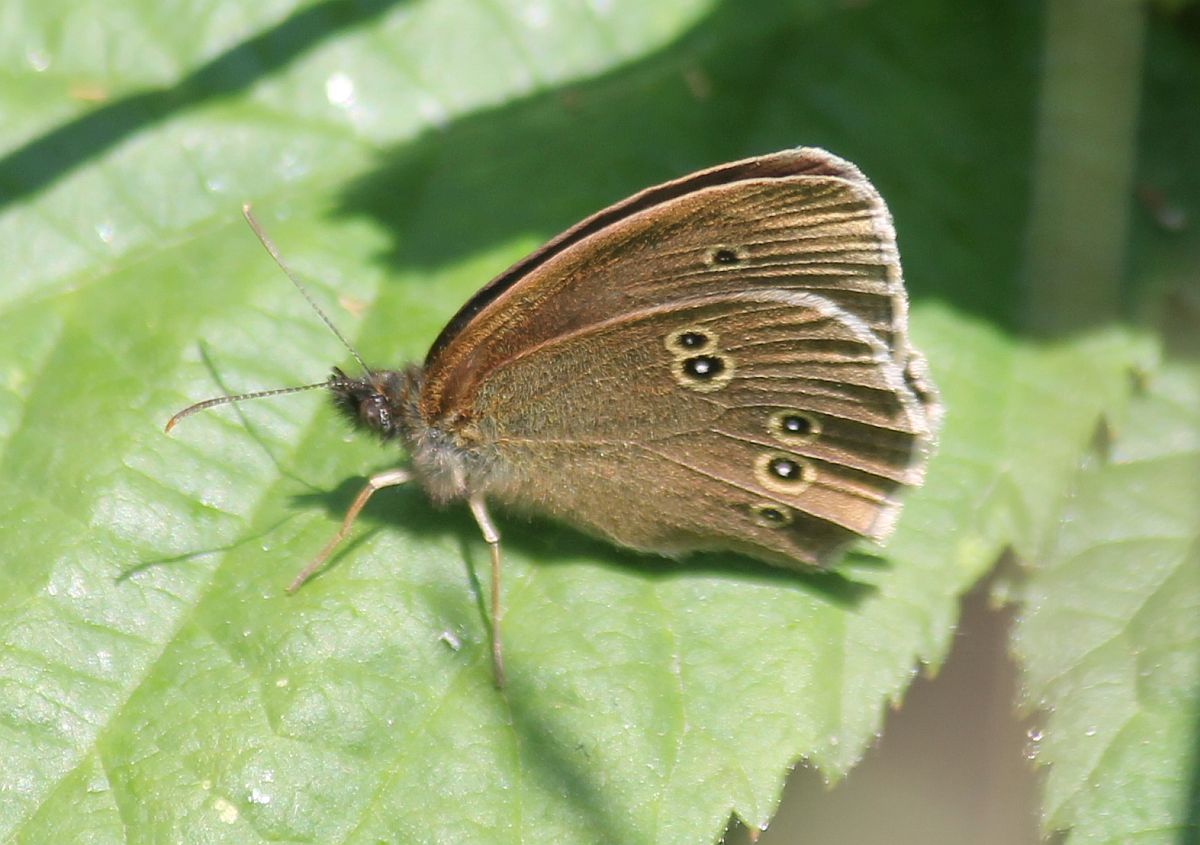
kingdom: Animalia
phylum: Arthropoda
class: Insecta
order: Lepidoptera
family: Nymphalidae
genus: Aphantopus
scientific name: Aphantopus hyperantus
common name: Ringlet
